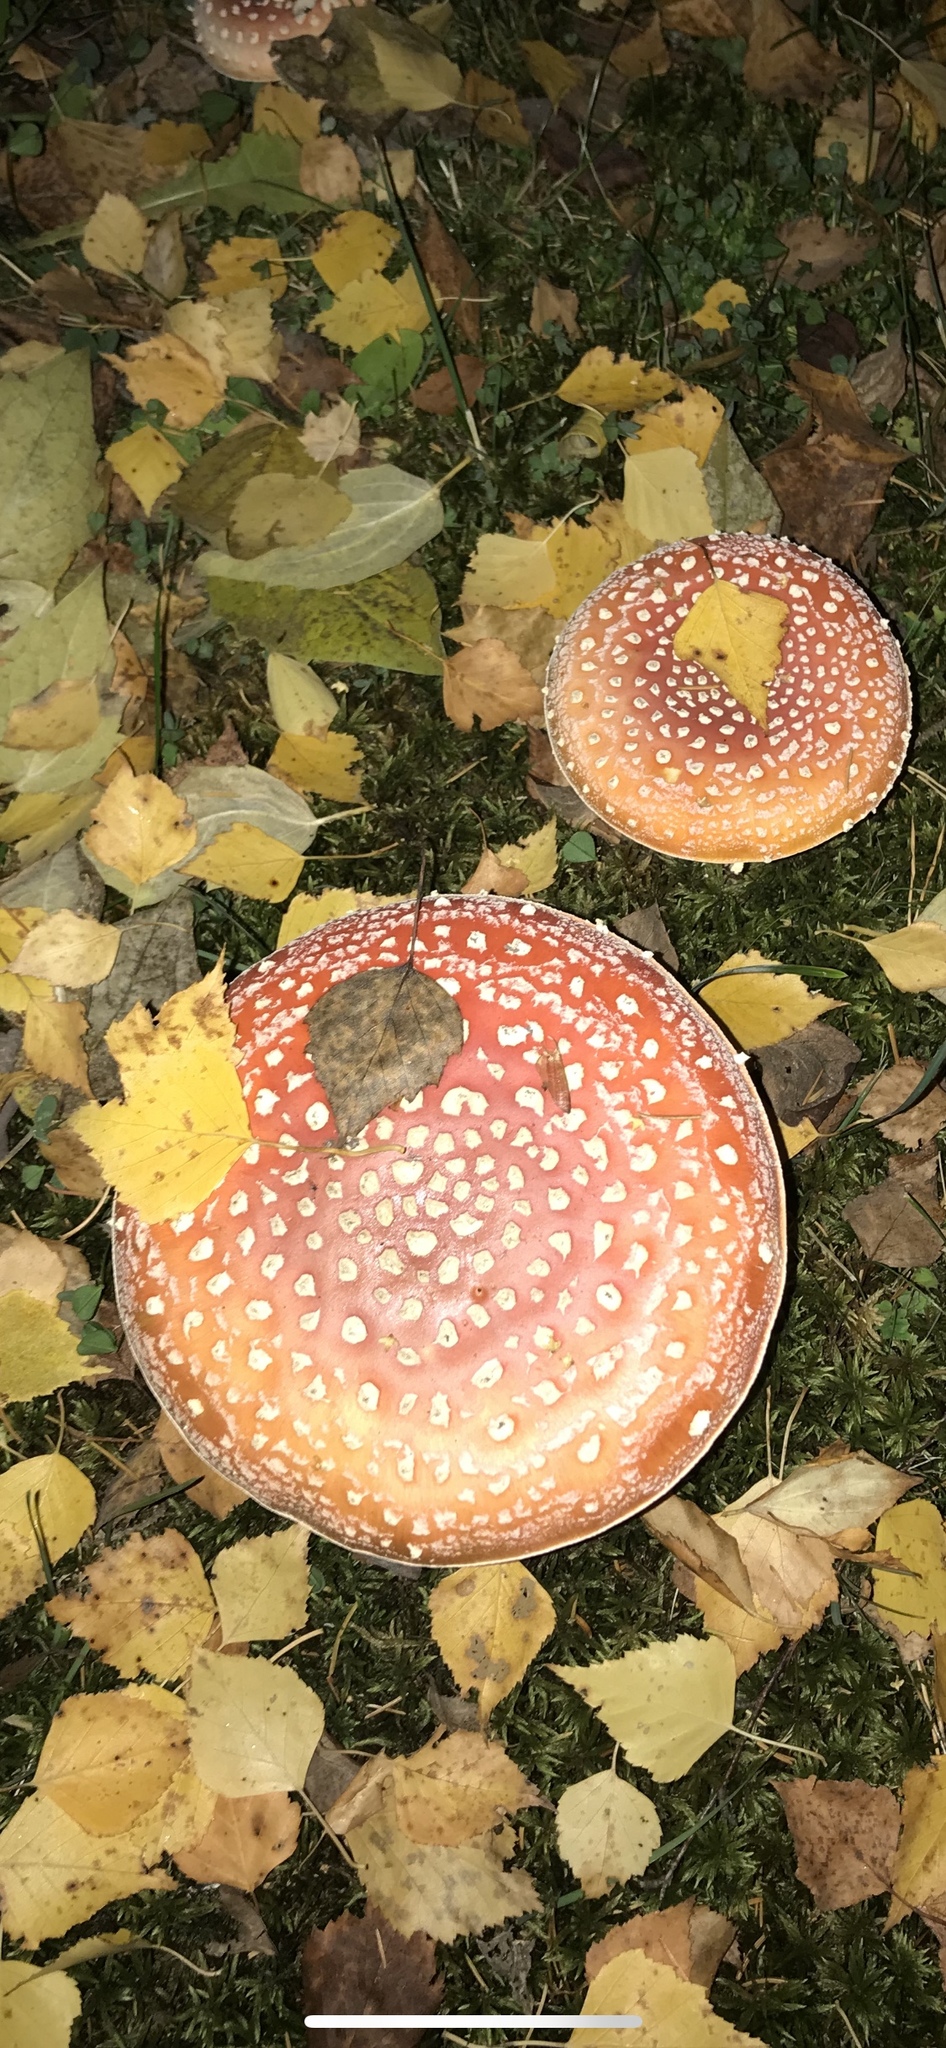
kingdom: Fungi
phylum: Basidiomycota
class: Agaricomycetes
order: Agaricales
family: Amanitaceae
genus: Amanita
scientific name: Amanita muscaria
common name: Fly agaric
